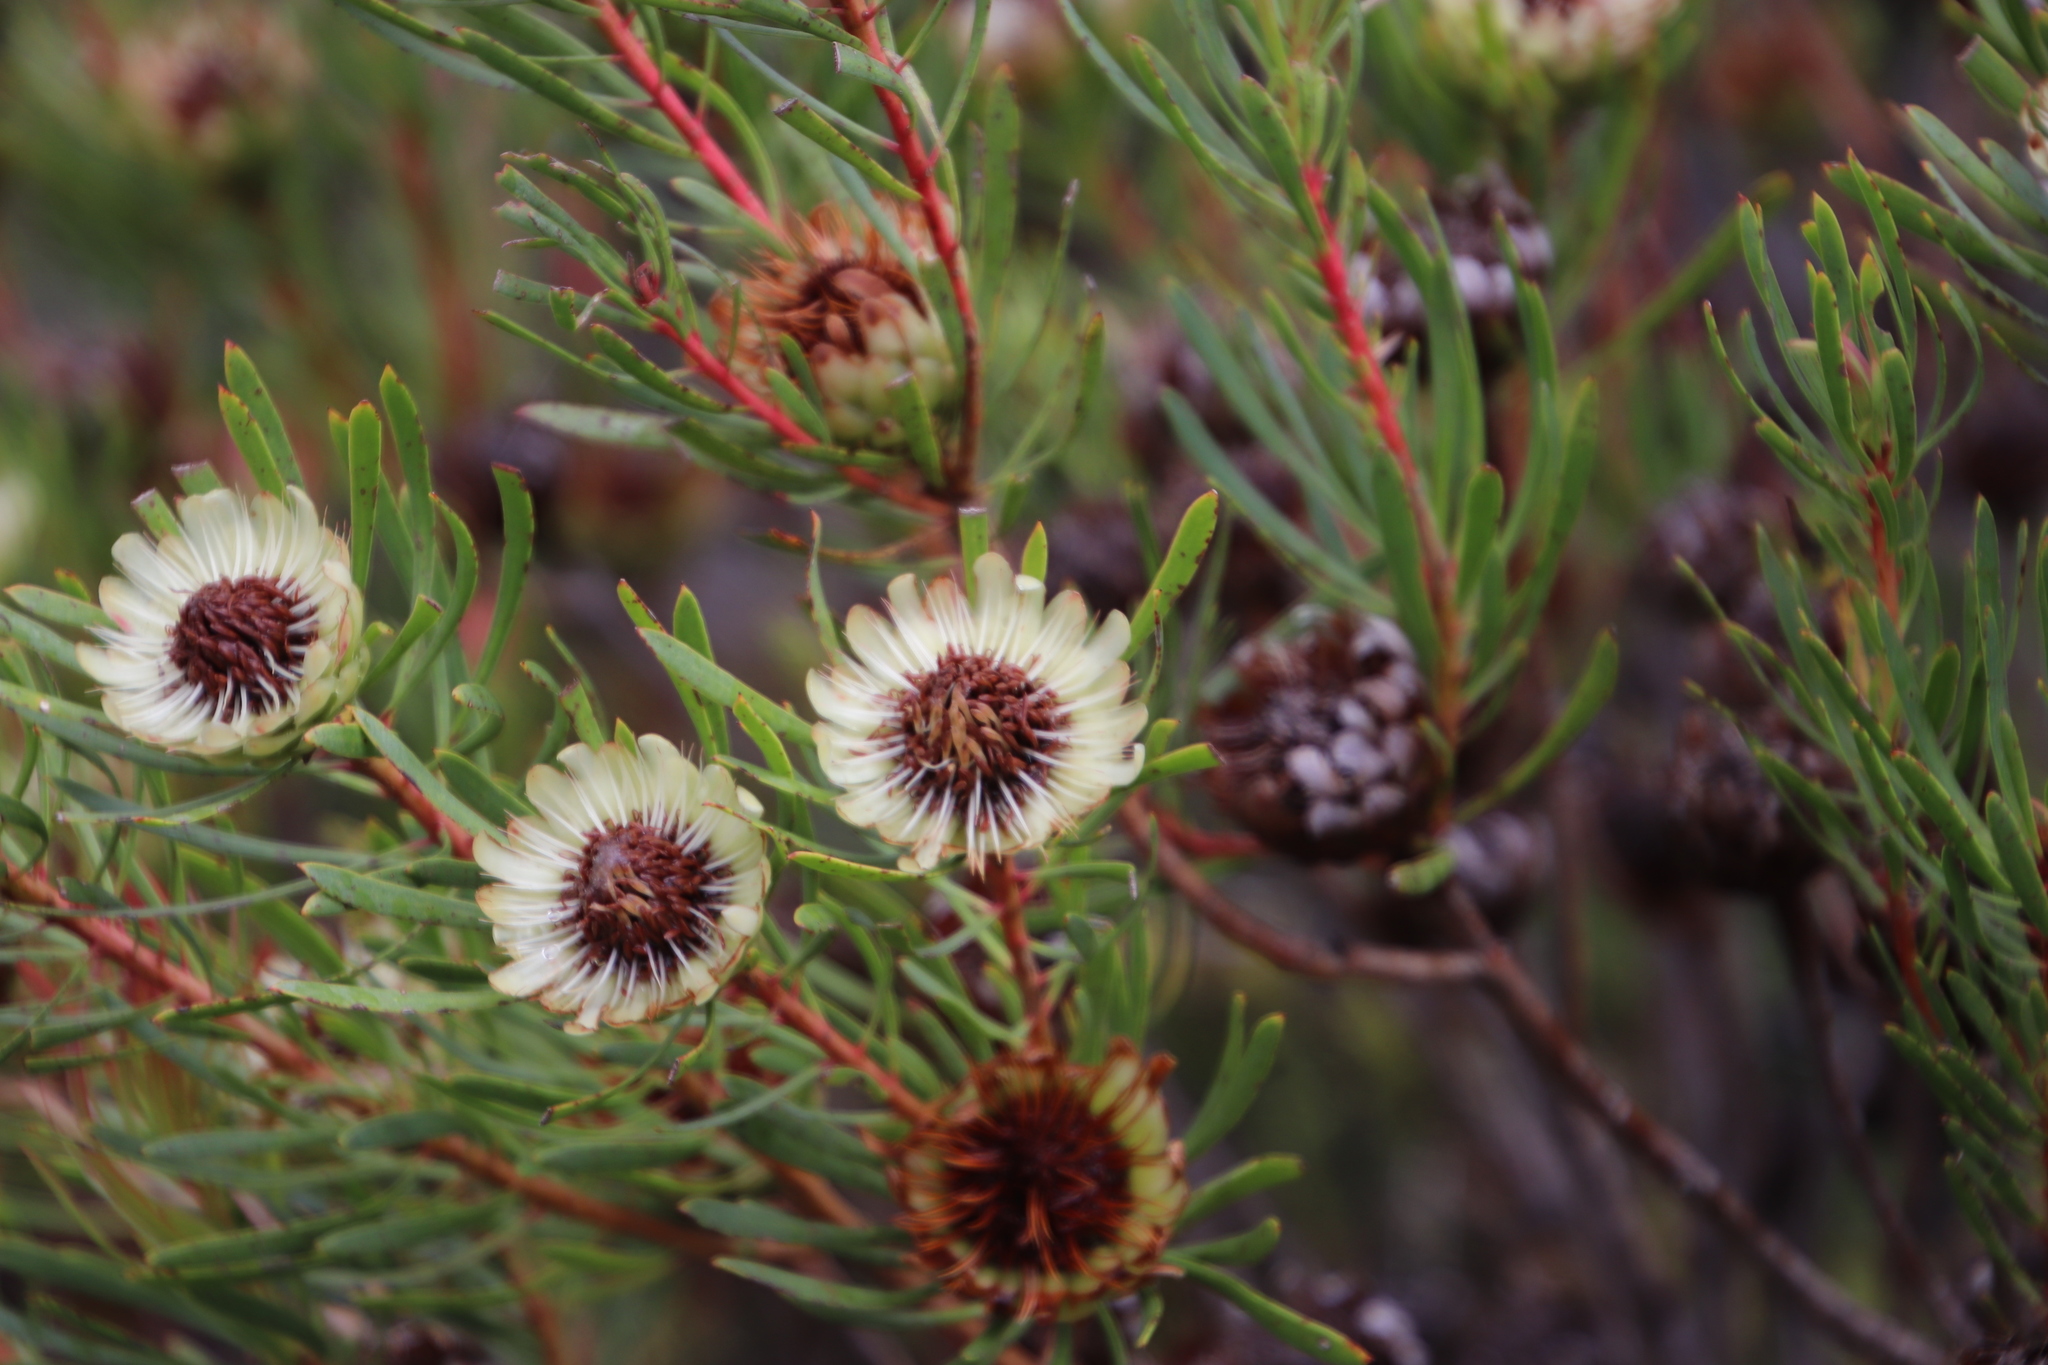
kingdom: Plantae
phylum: Tracheophyta
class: Magnoliopsida
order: Proteales
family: Proteaceae
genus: Protea
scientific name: Protea scolymocephala
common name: Thistle sugarbush
